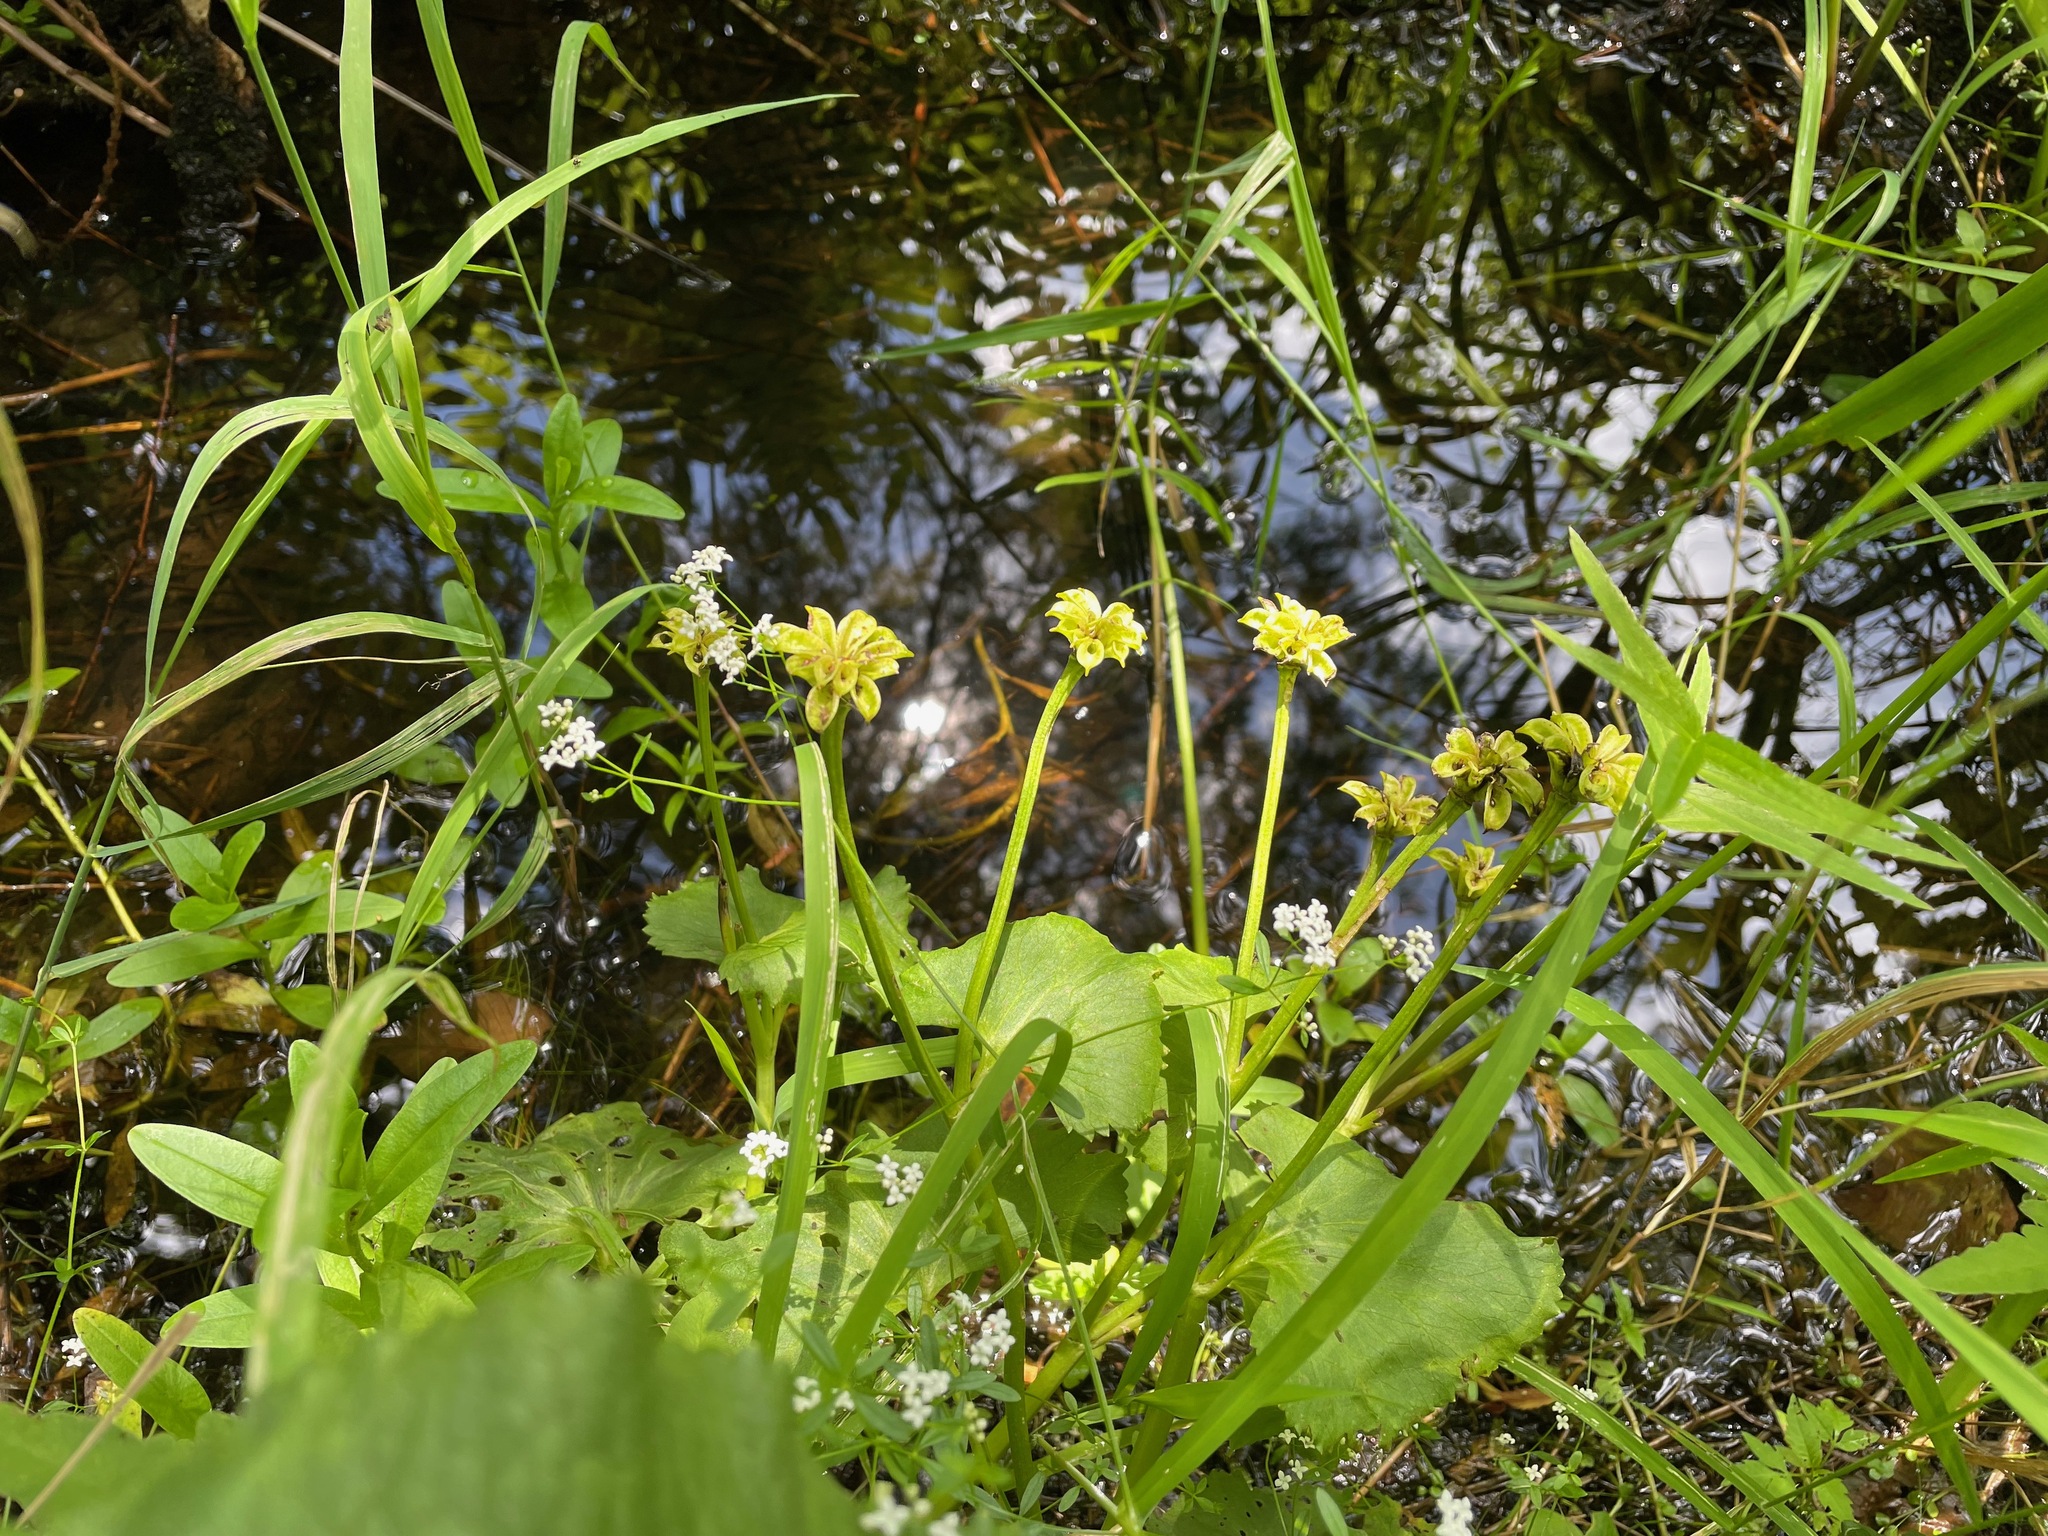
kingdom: Plantae
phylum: Tracheophyta
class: Magnoliopsida
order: Ranunculales
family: Ranunculaceae
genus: Caltha
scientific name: Caltha palustris
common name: Marsh marigold
